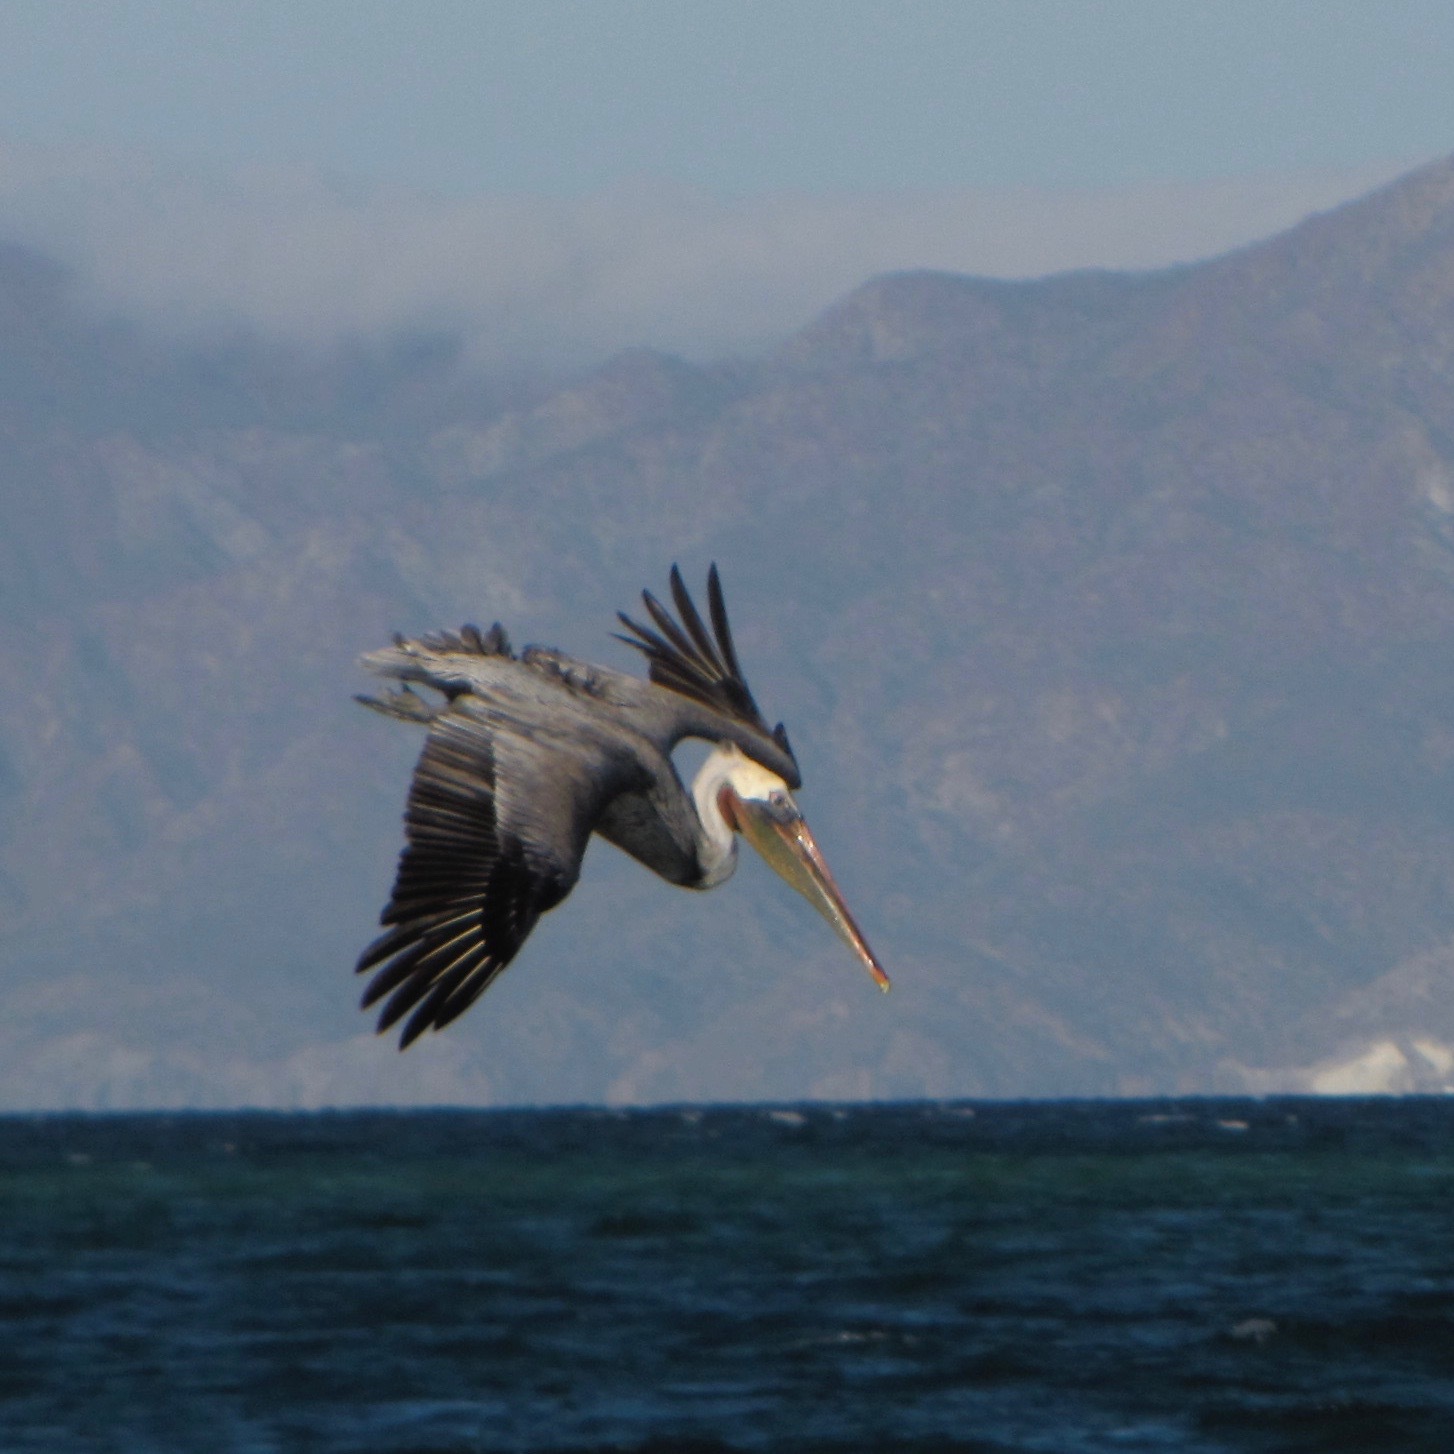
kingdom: Animalia
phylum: Chordata
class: Aves
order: Pelecaniformes
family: Pelecanidae
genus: Pelecanus
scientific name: Pelecanus occidentalis
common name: Brown pelican
